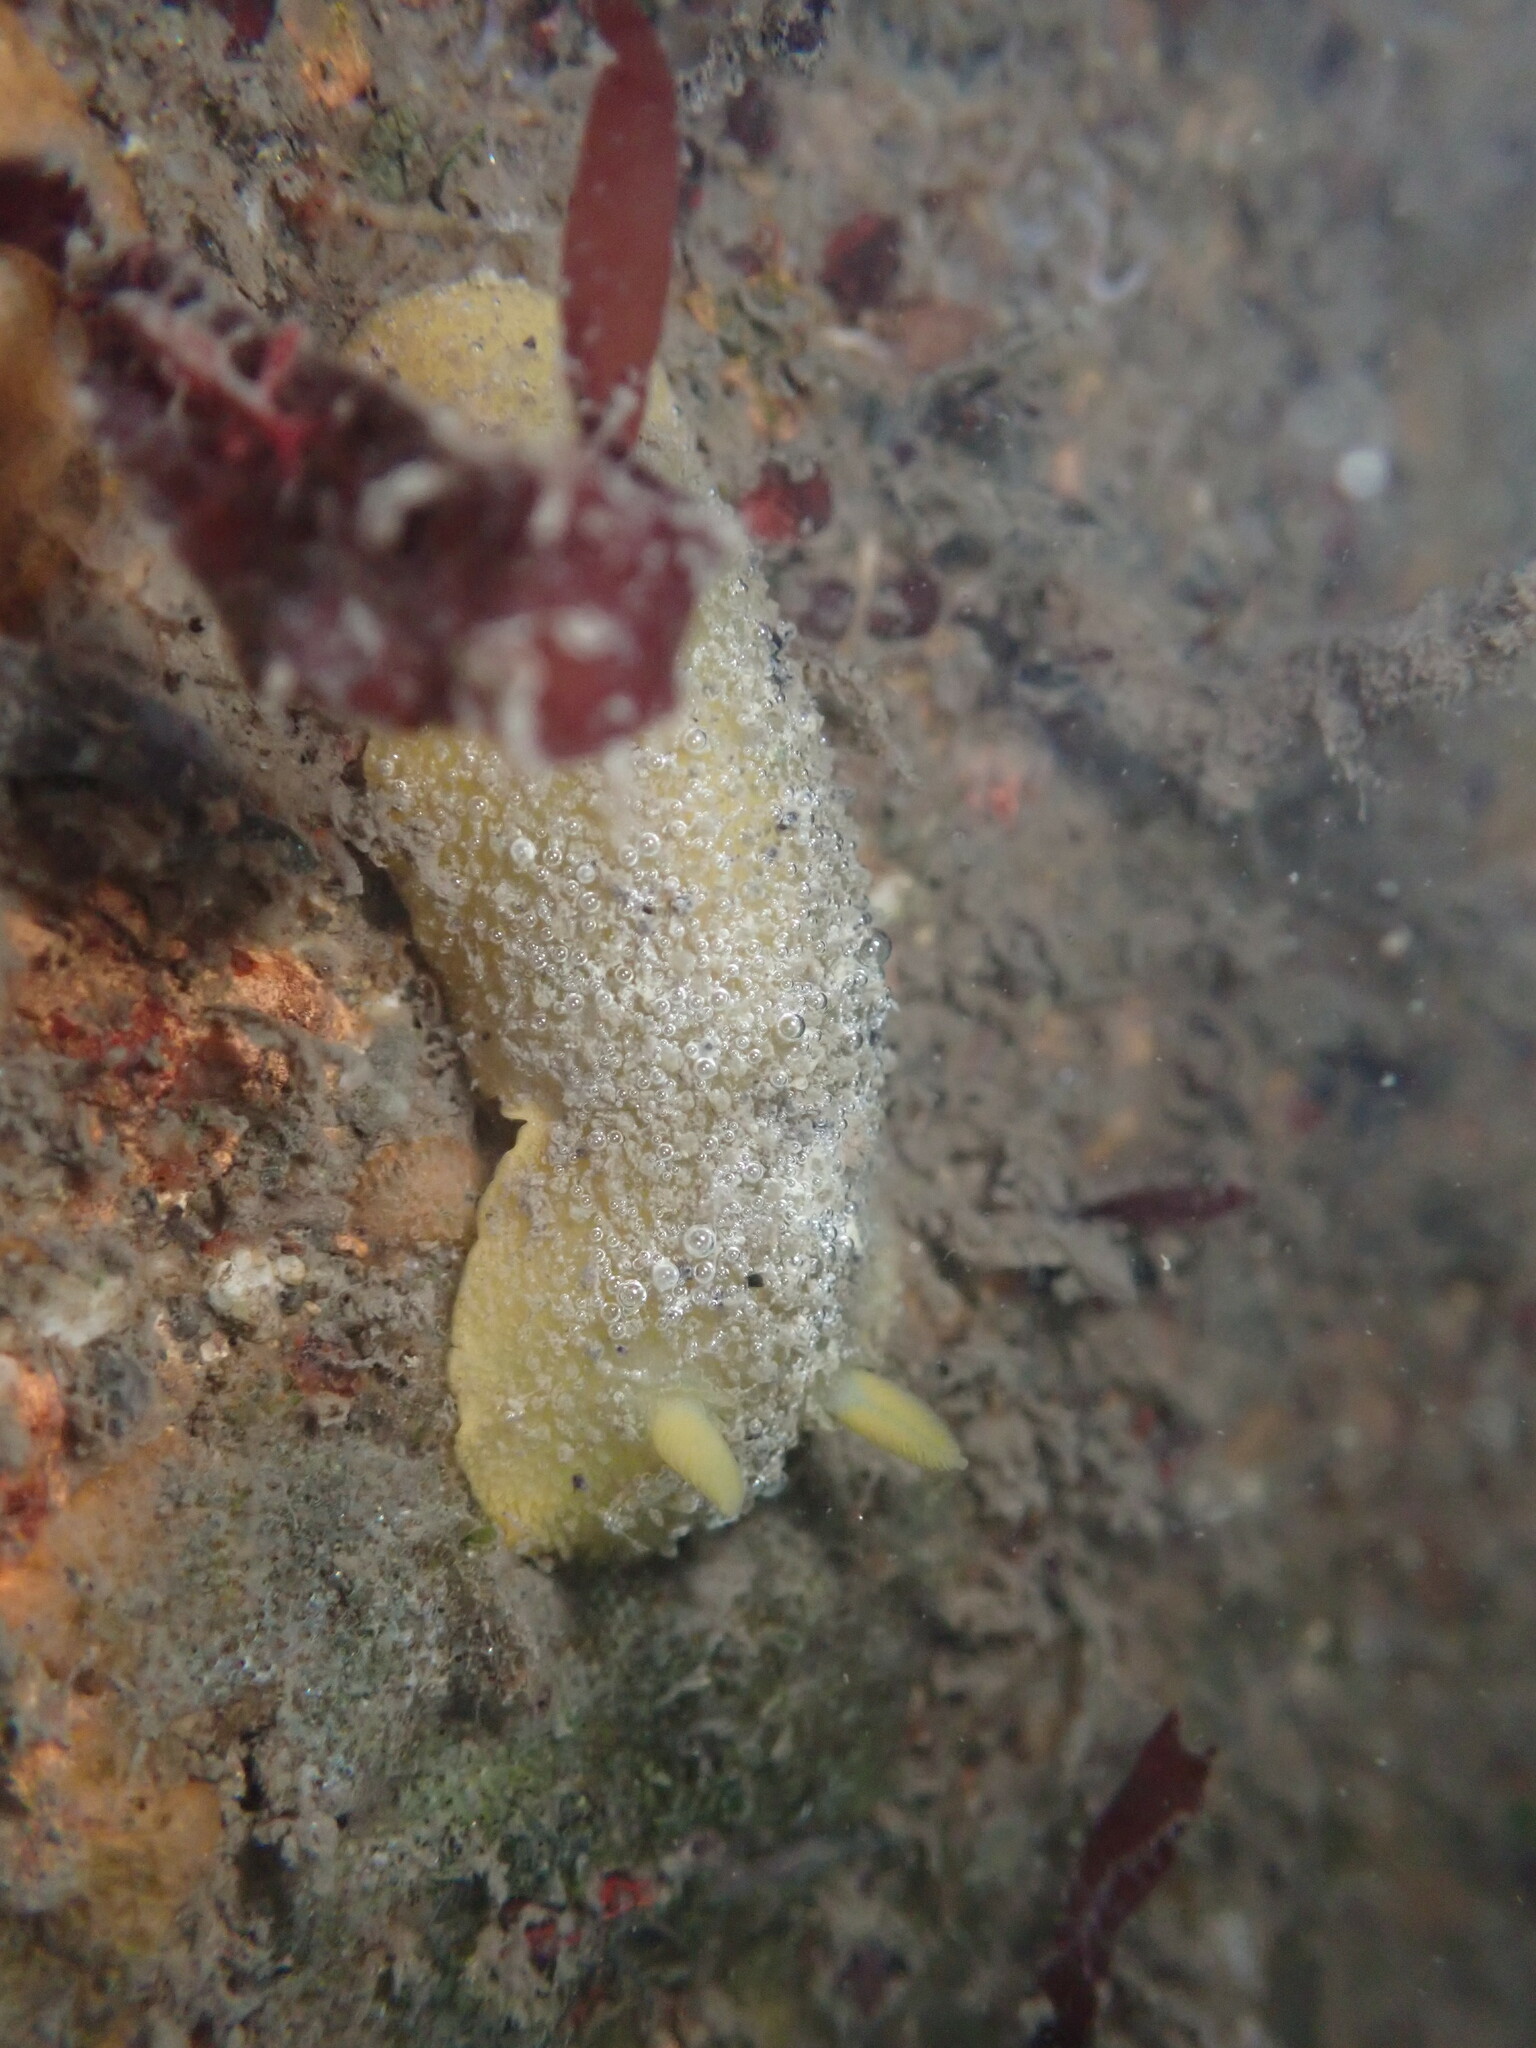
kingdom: Animalia
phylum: Mollusca
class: Gastropoda
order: Nudibranchia
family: Dorididae
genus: Doris
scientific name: Doris montereyensis
